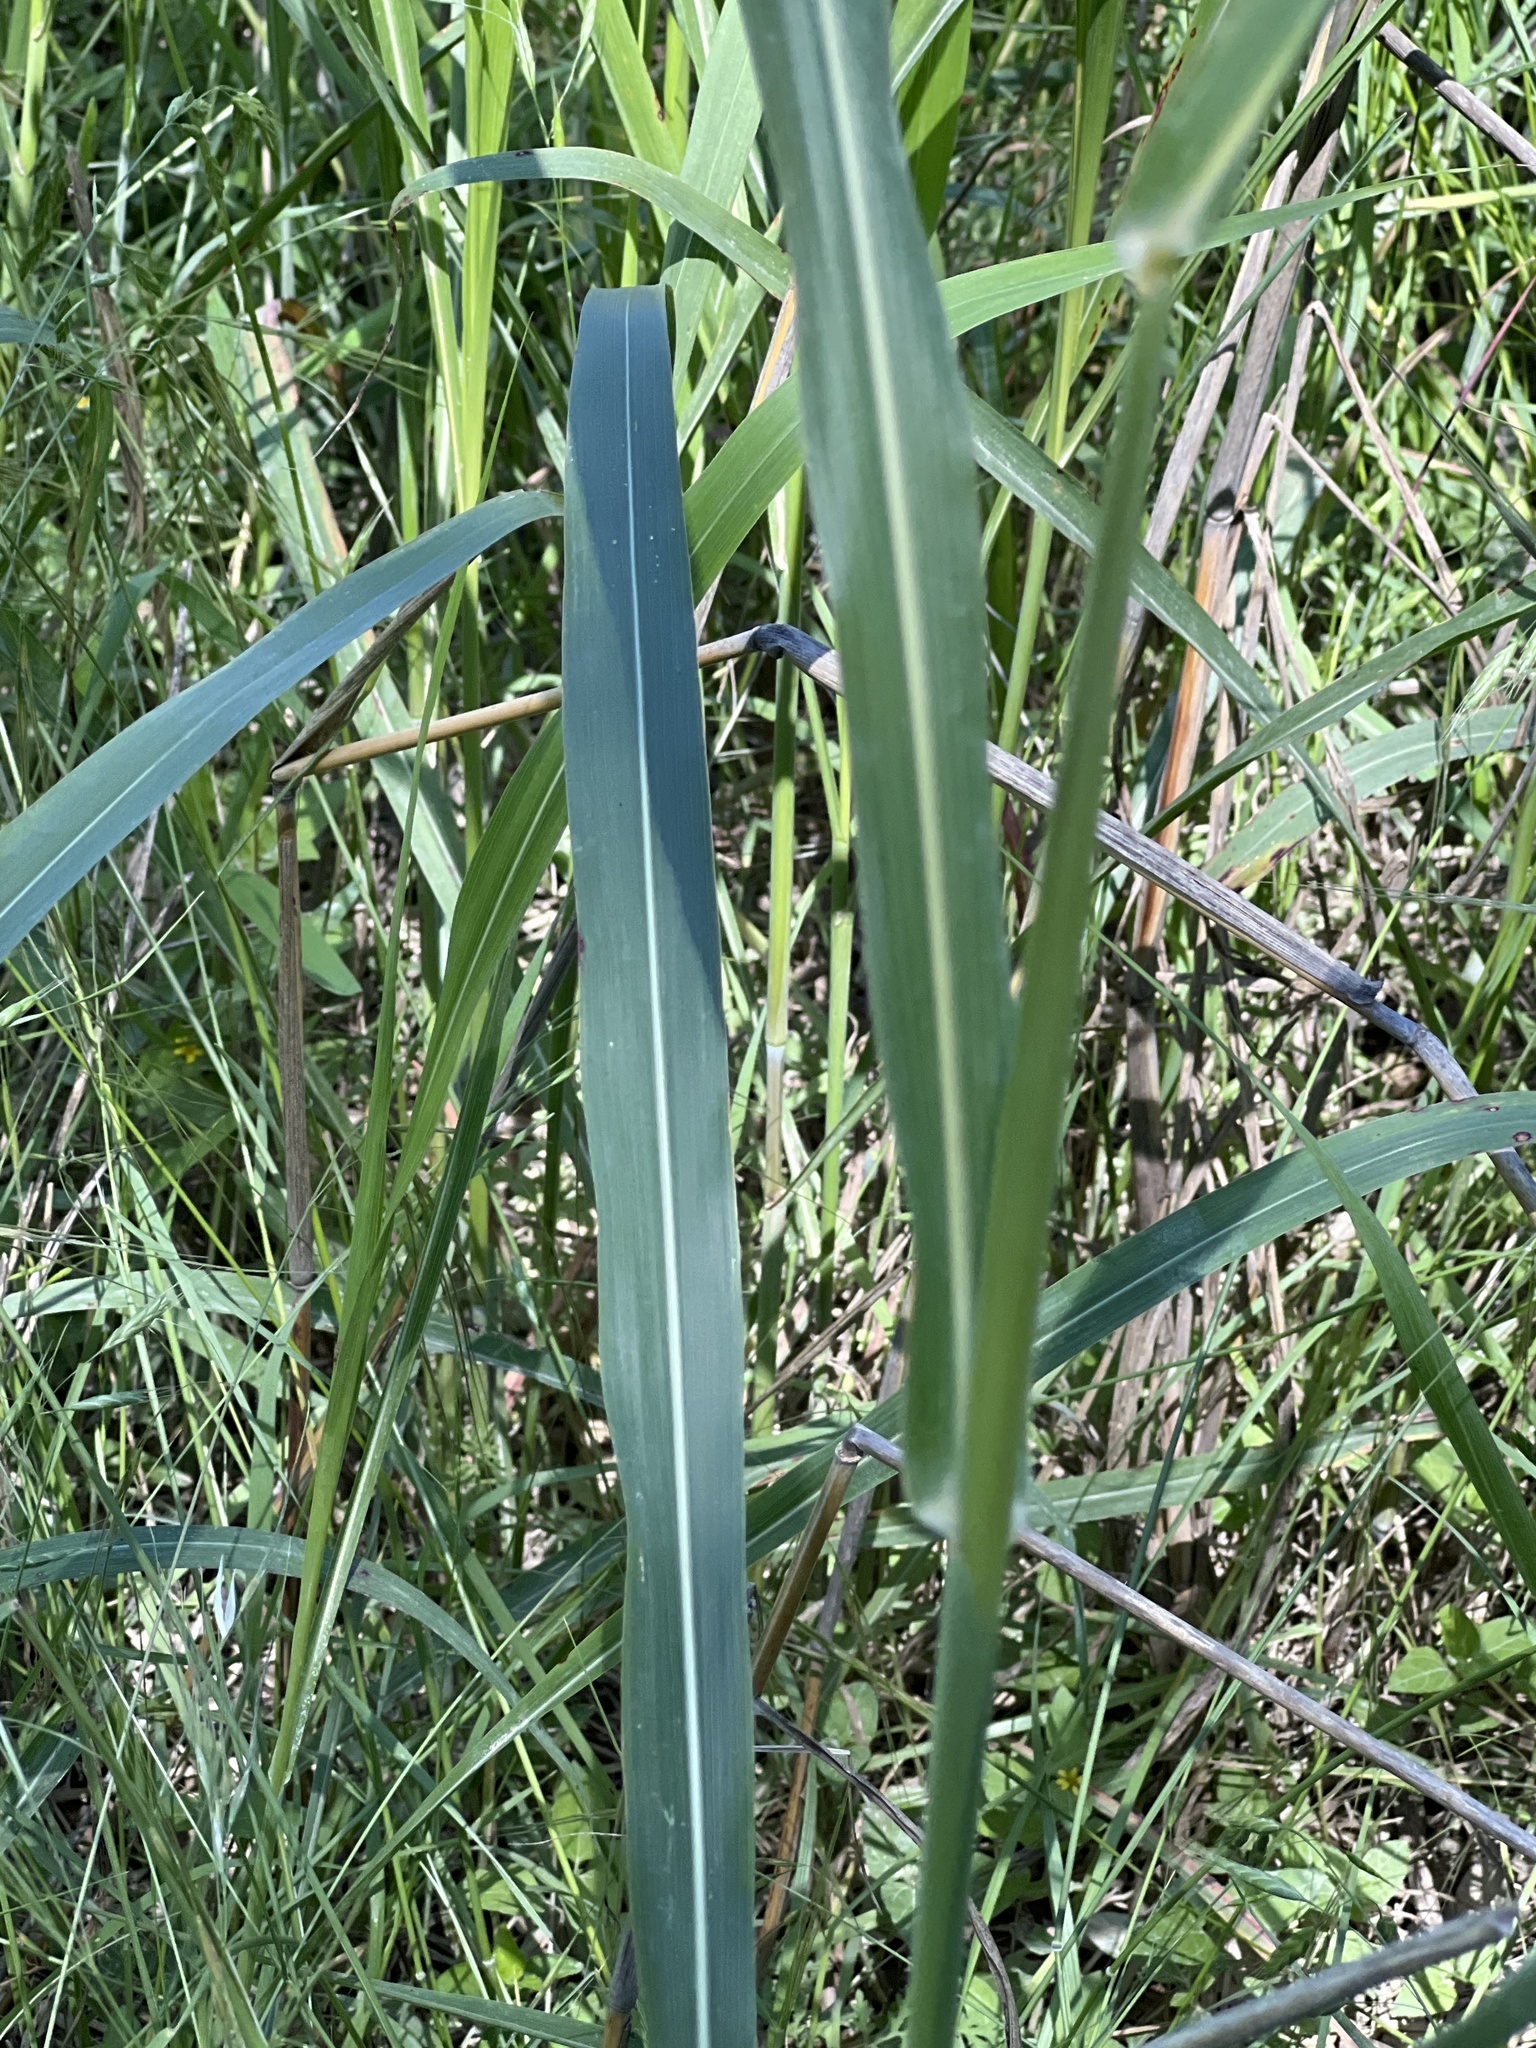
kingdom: Plantae
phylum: Tracheophyta
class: Liliopsida
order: Poales
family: Poaceae
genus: Sorghum
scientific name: Sorghum halepense
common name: Johnson-grass
